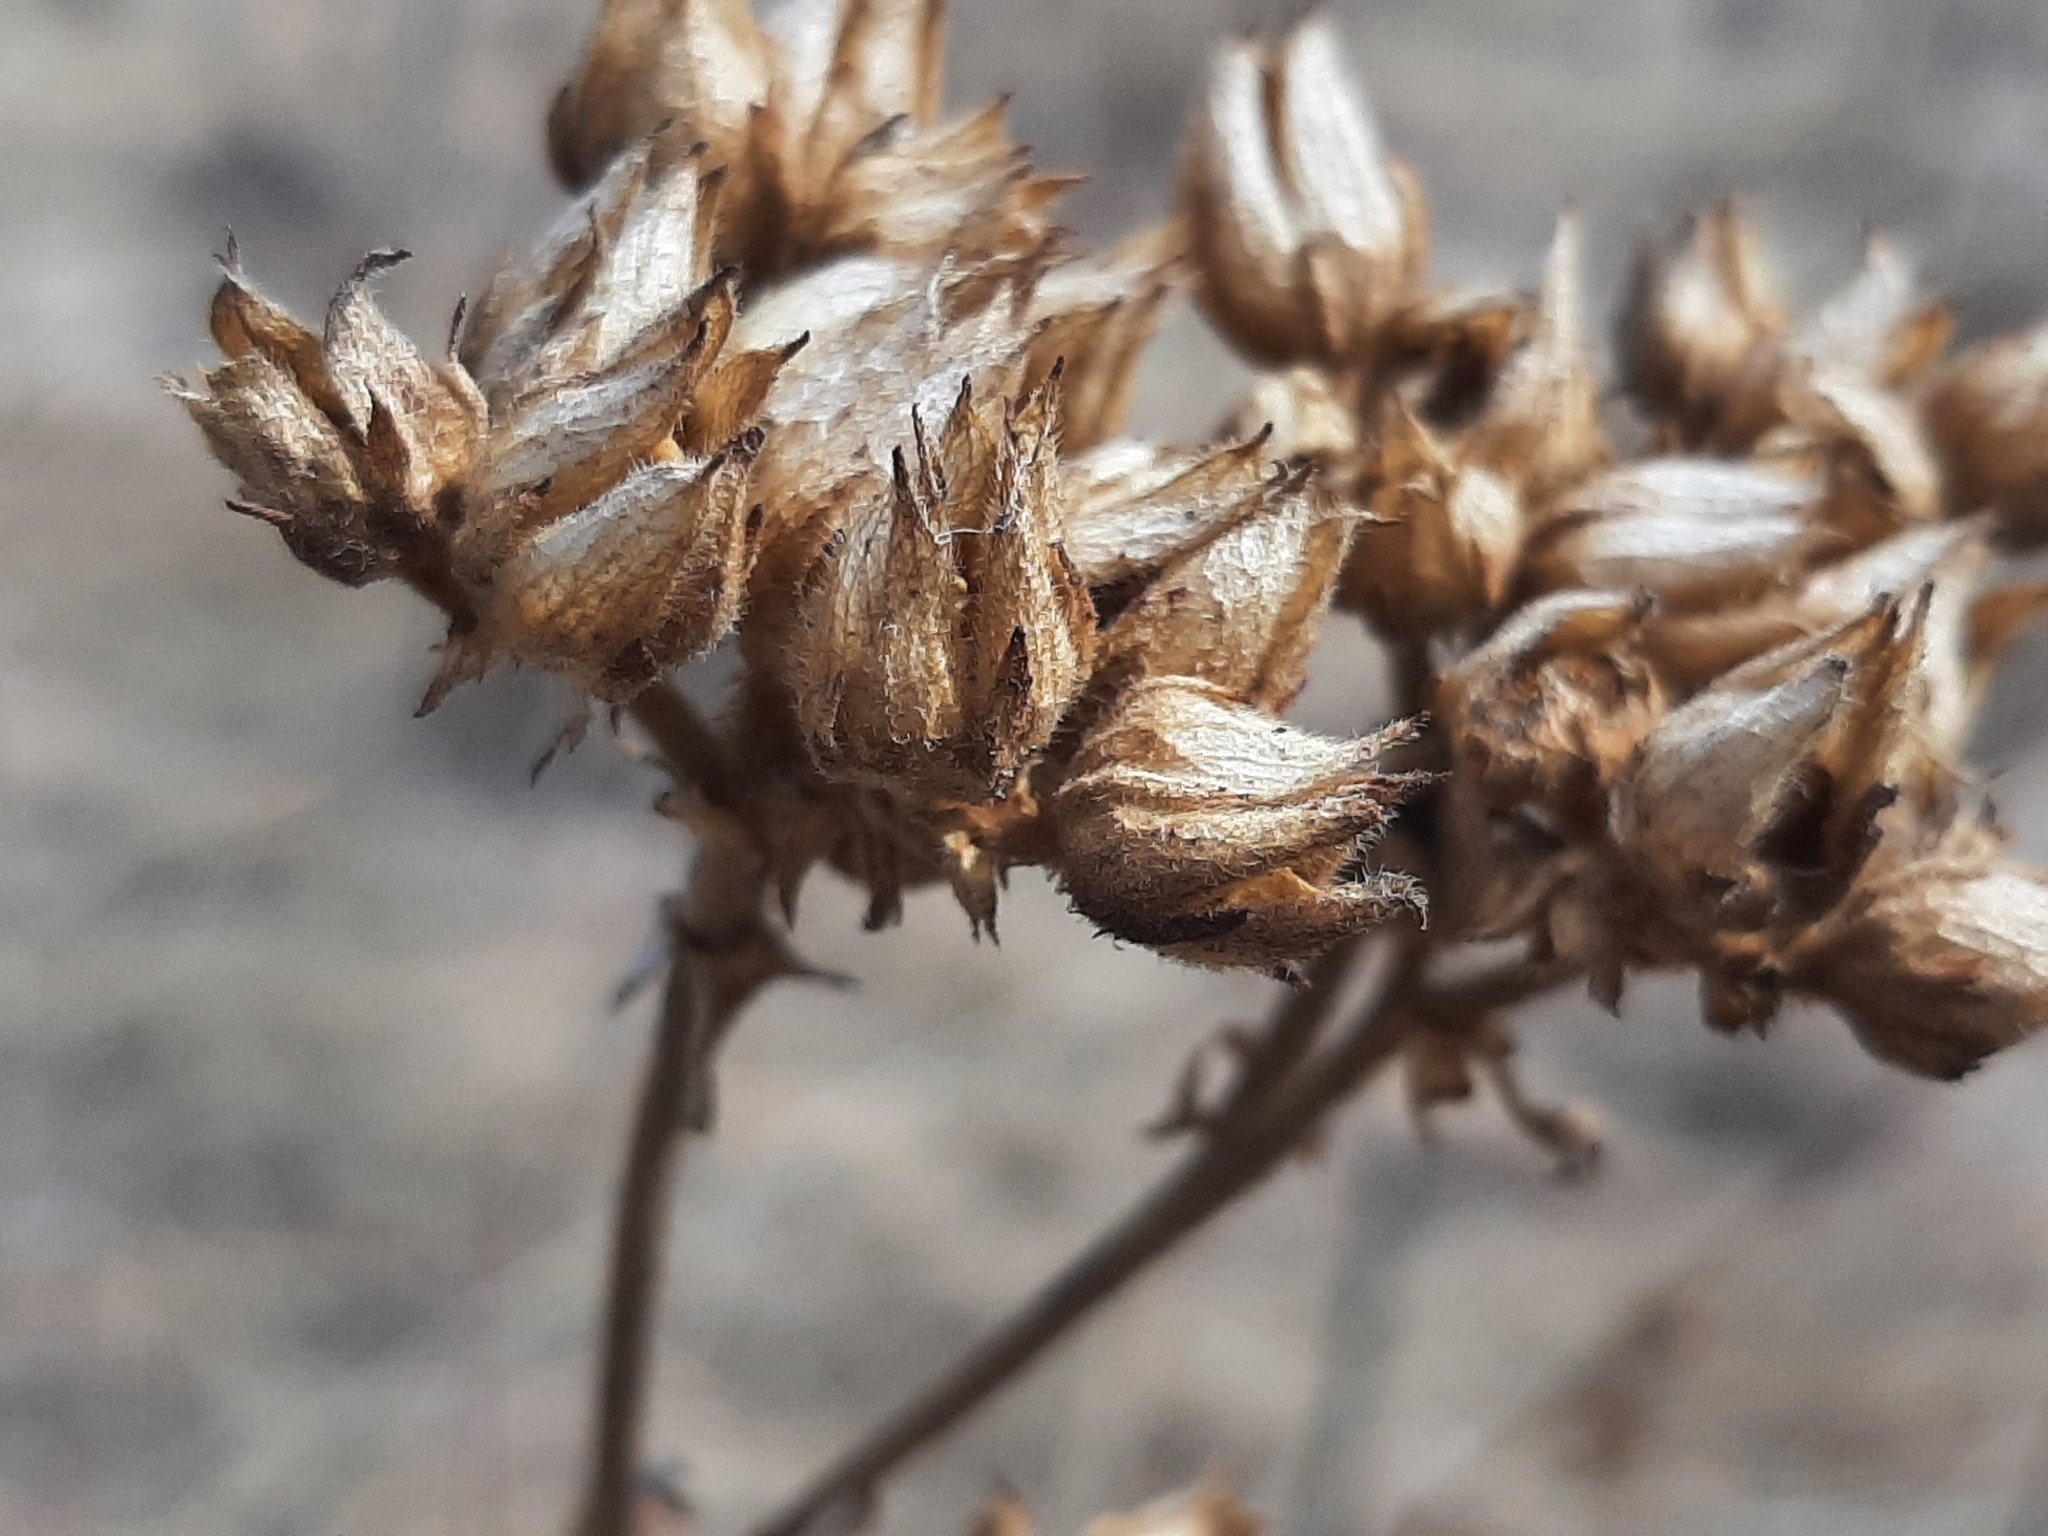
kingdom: Plantae
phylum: Tracheophyta
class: Magnoliopsida
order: Rosales
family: Rosaceae
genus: Drymocallis
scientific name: Drymocallis arguta
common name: Tall cinquefoil
